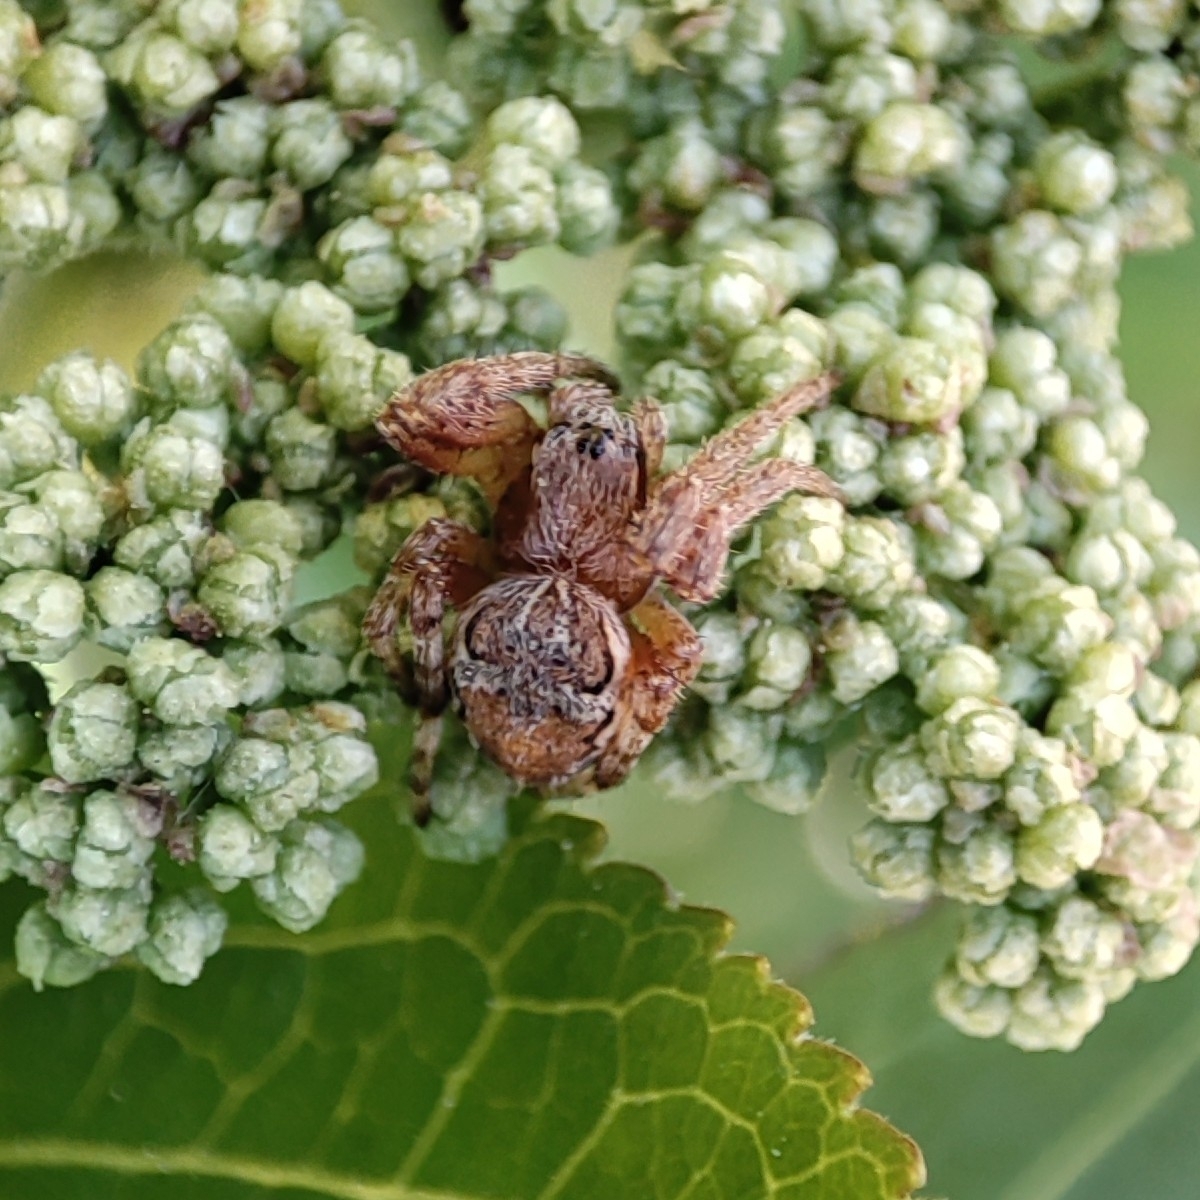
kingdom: Animalia
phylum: Arthropoda
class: Arachnida
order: Araneae
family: Araneidae
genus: Larinioides
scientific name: Larinioides patagiatus
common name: Ornamental orbweaver
